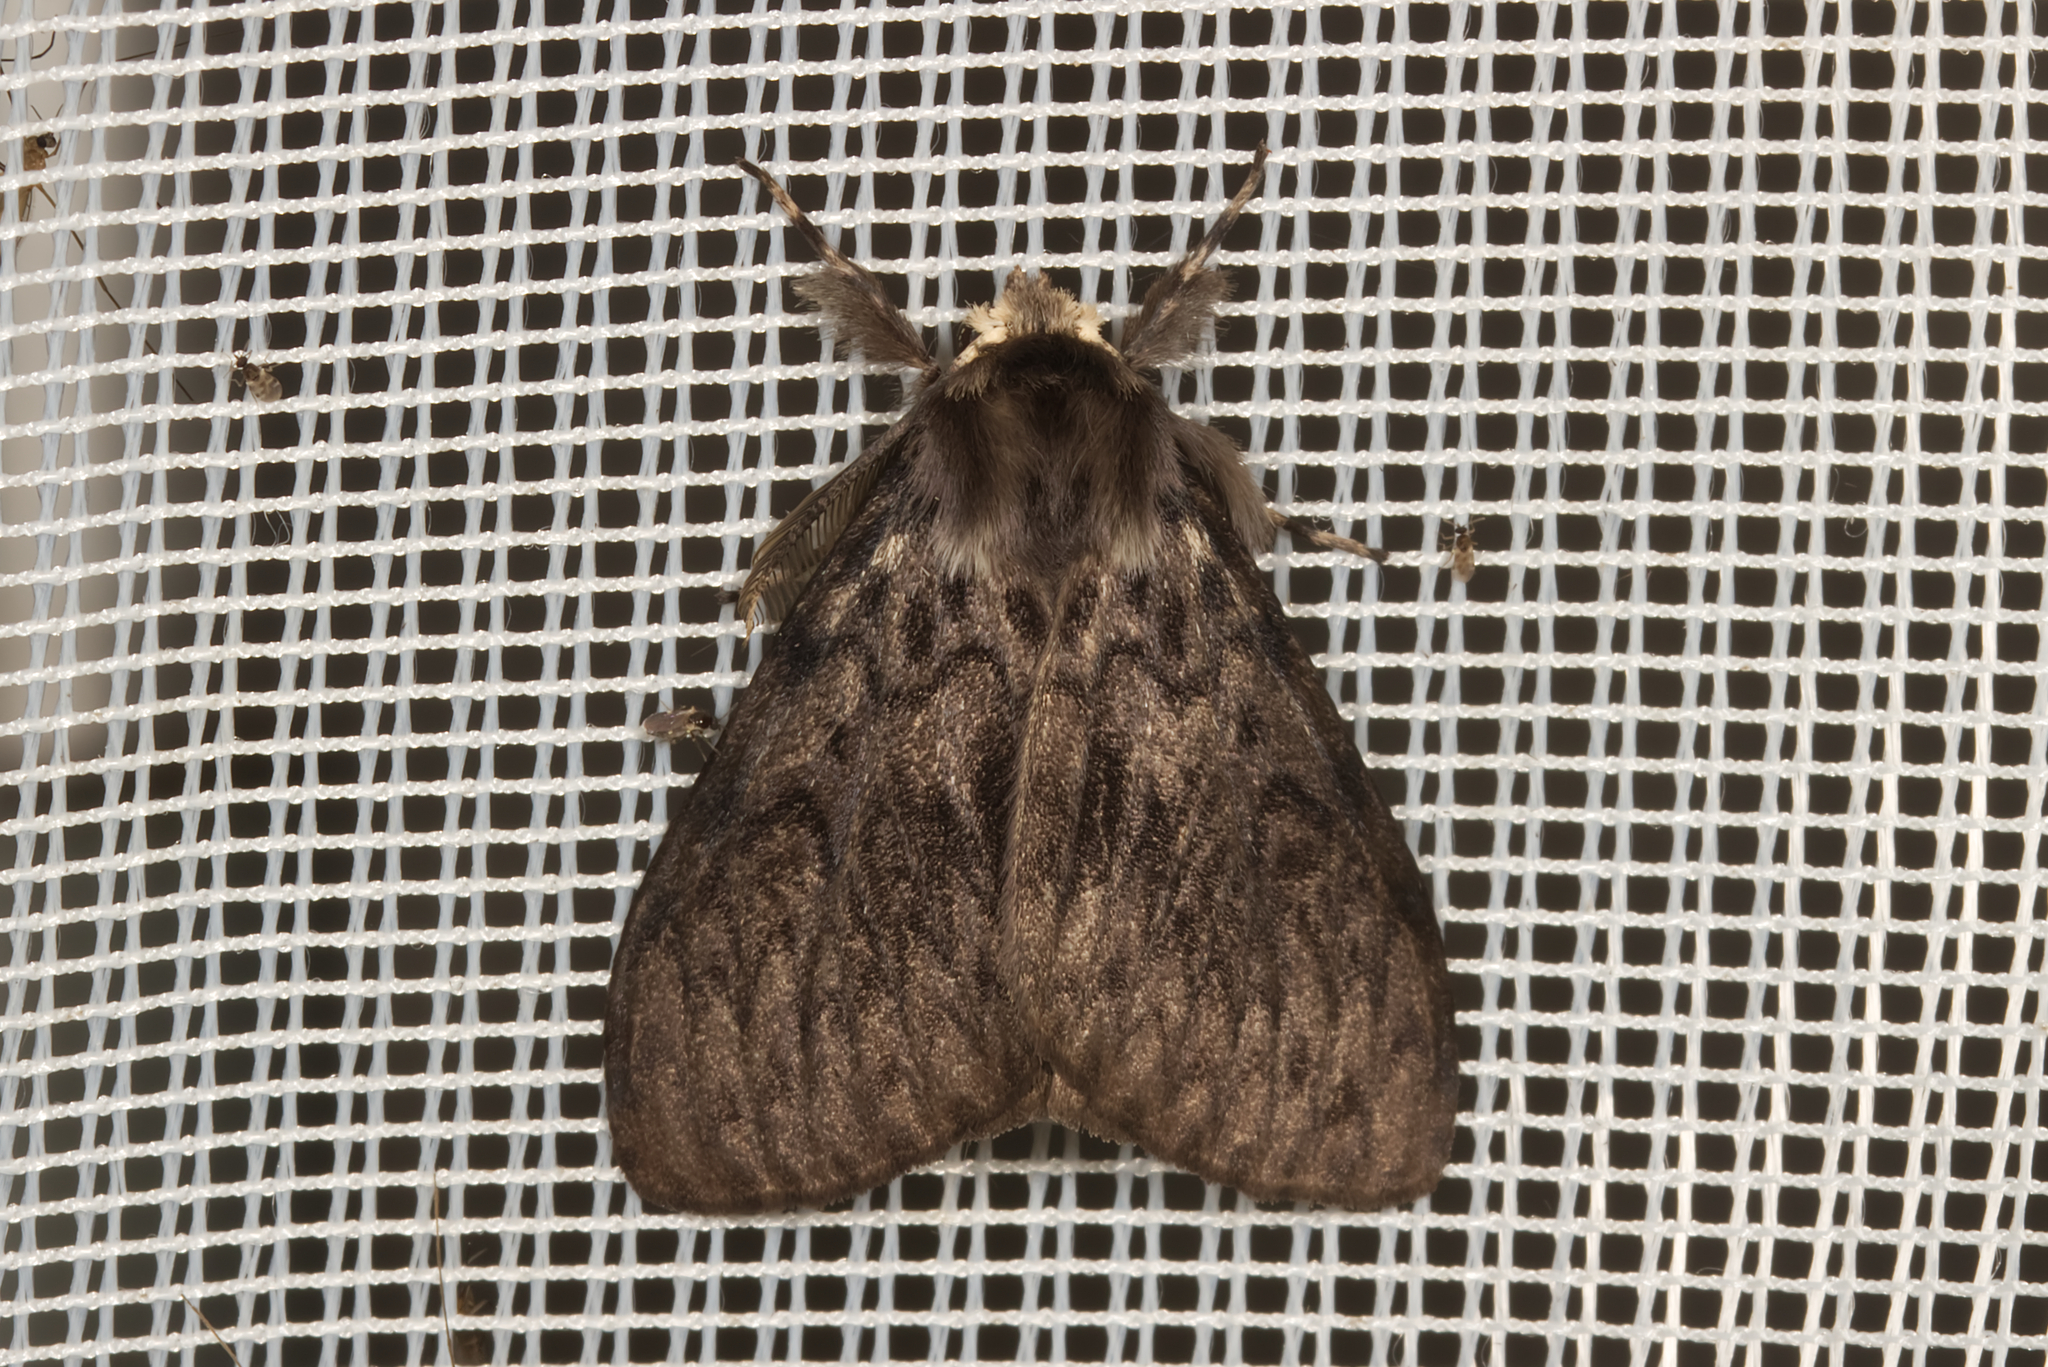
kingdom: Animalia
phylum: Arthropoda
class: Insecta
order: Lepidoptera
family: Erebidae
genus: Lymantria
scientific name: Lymantria monacha
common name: Black arches
